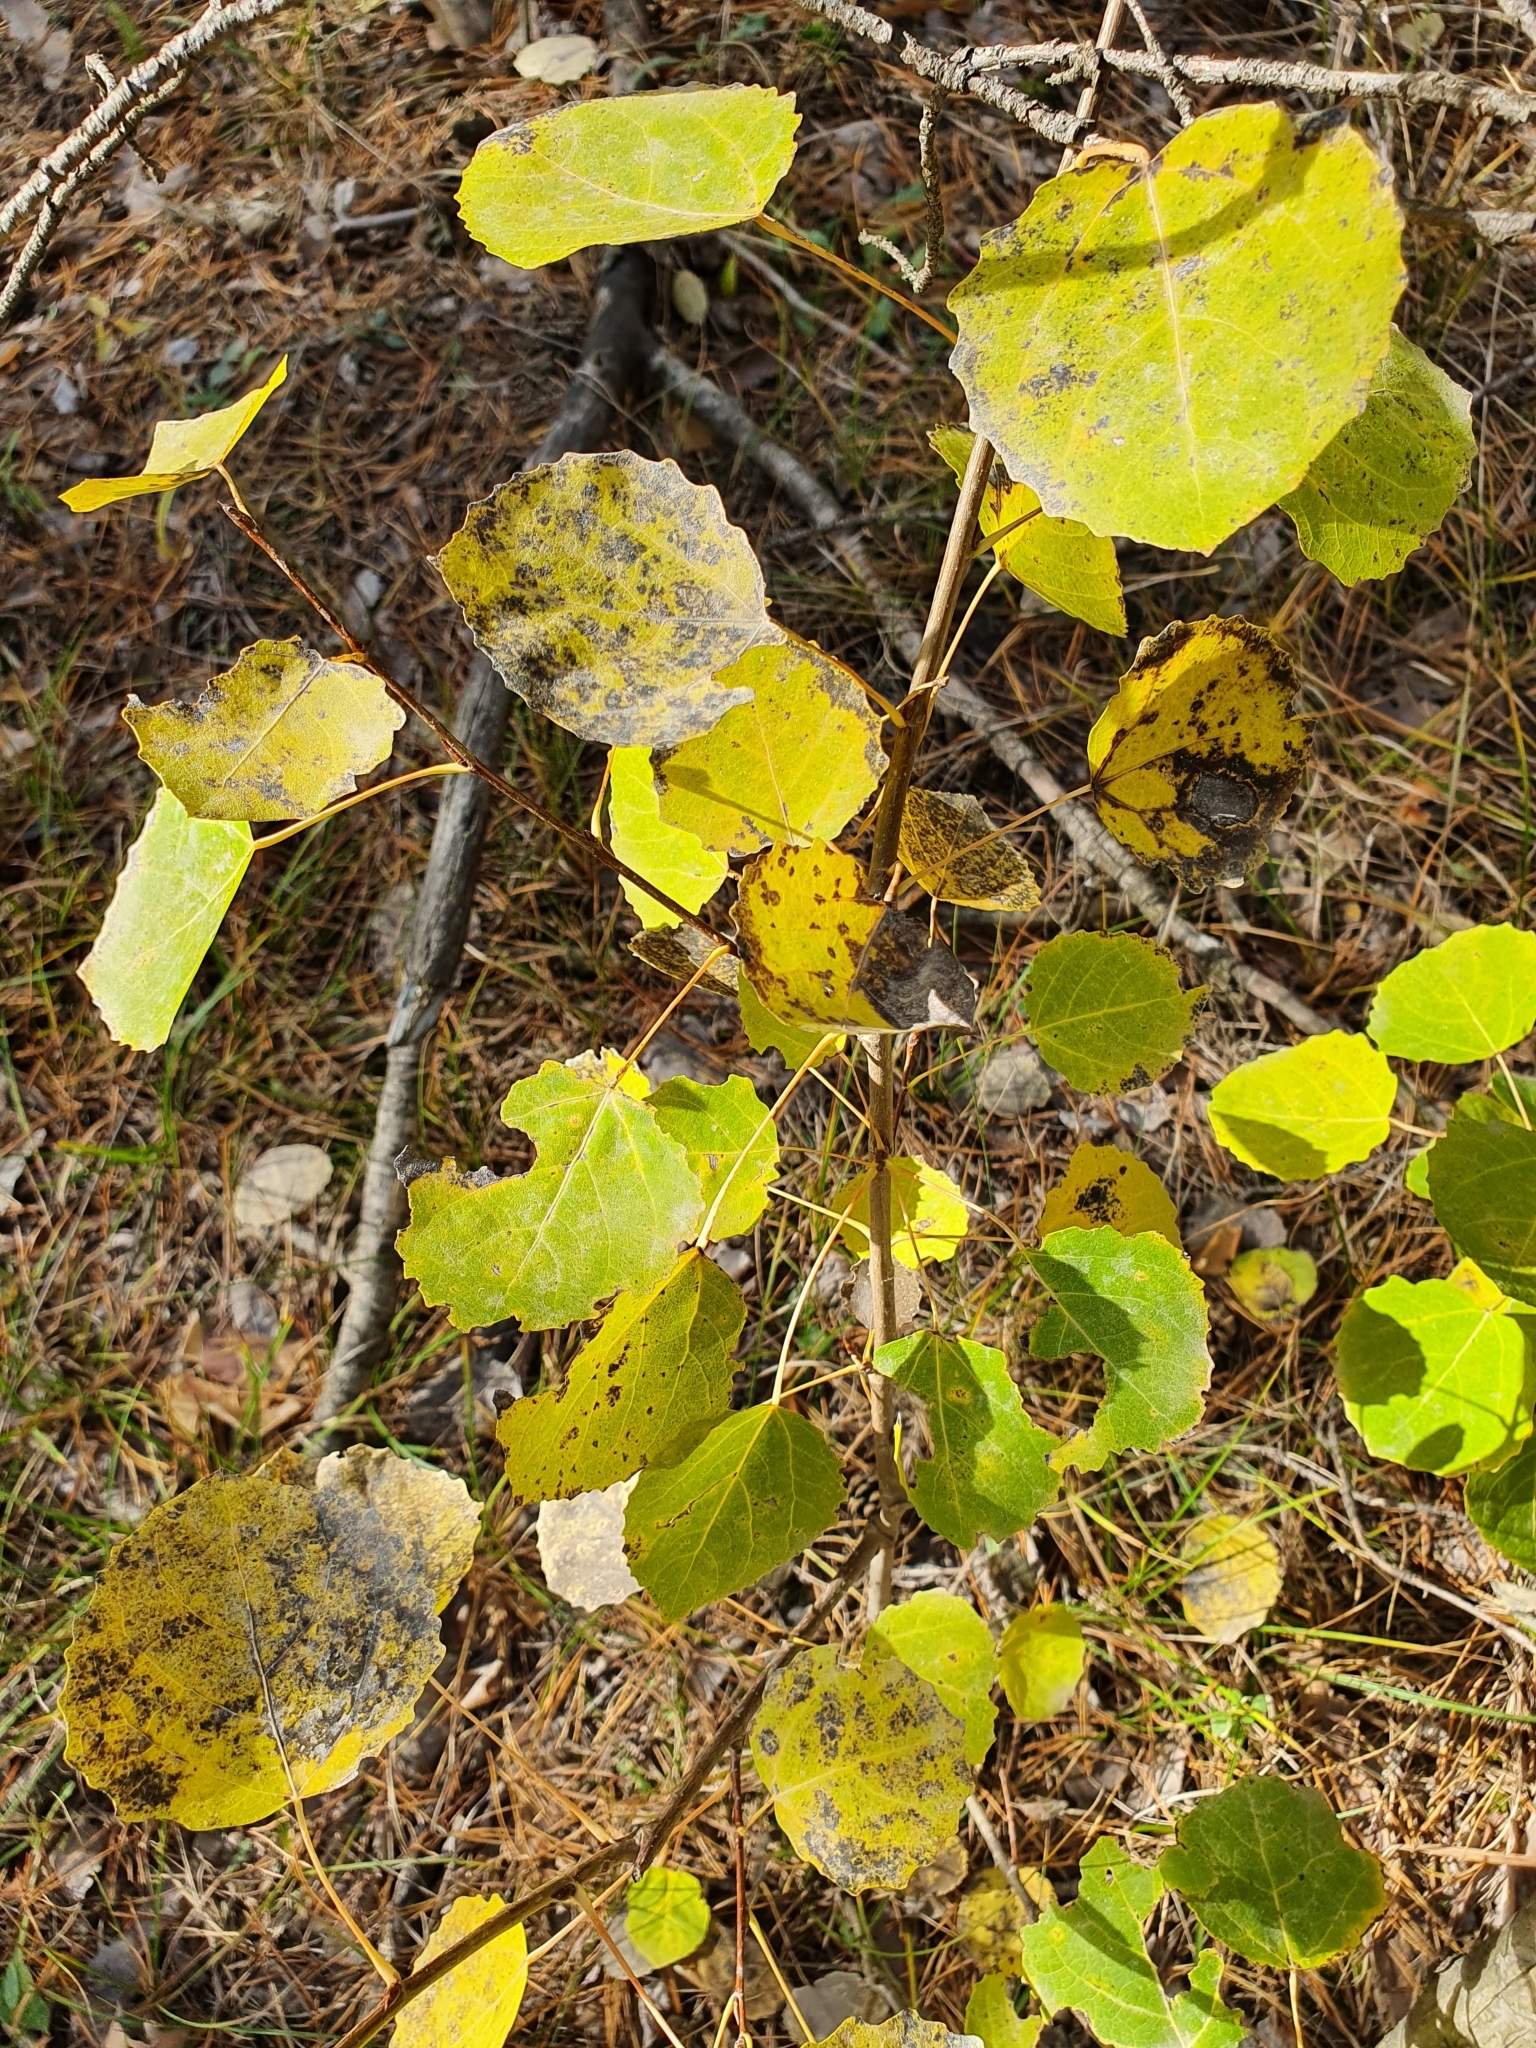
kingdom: Plantae
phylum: Tracheophyta
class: Magnoliopsida
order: Malpighiales
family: Salicaceae
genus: Populus
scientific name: Populus tremula
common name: European aspen
